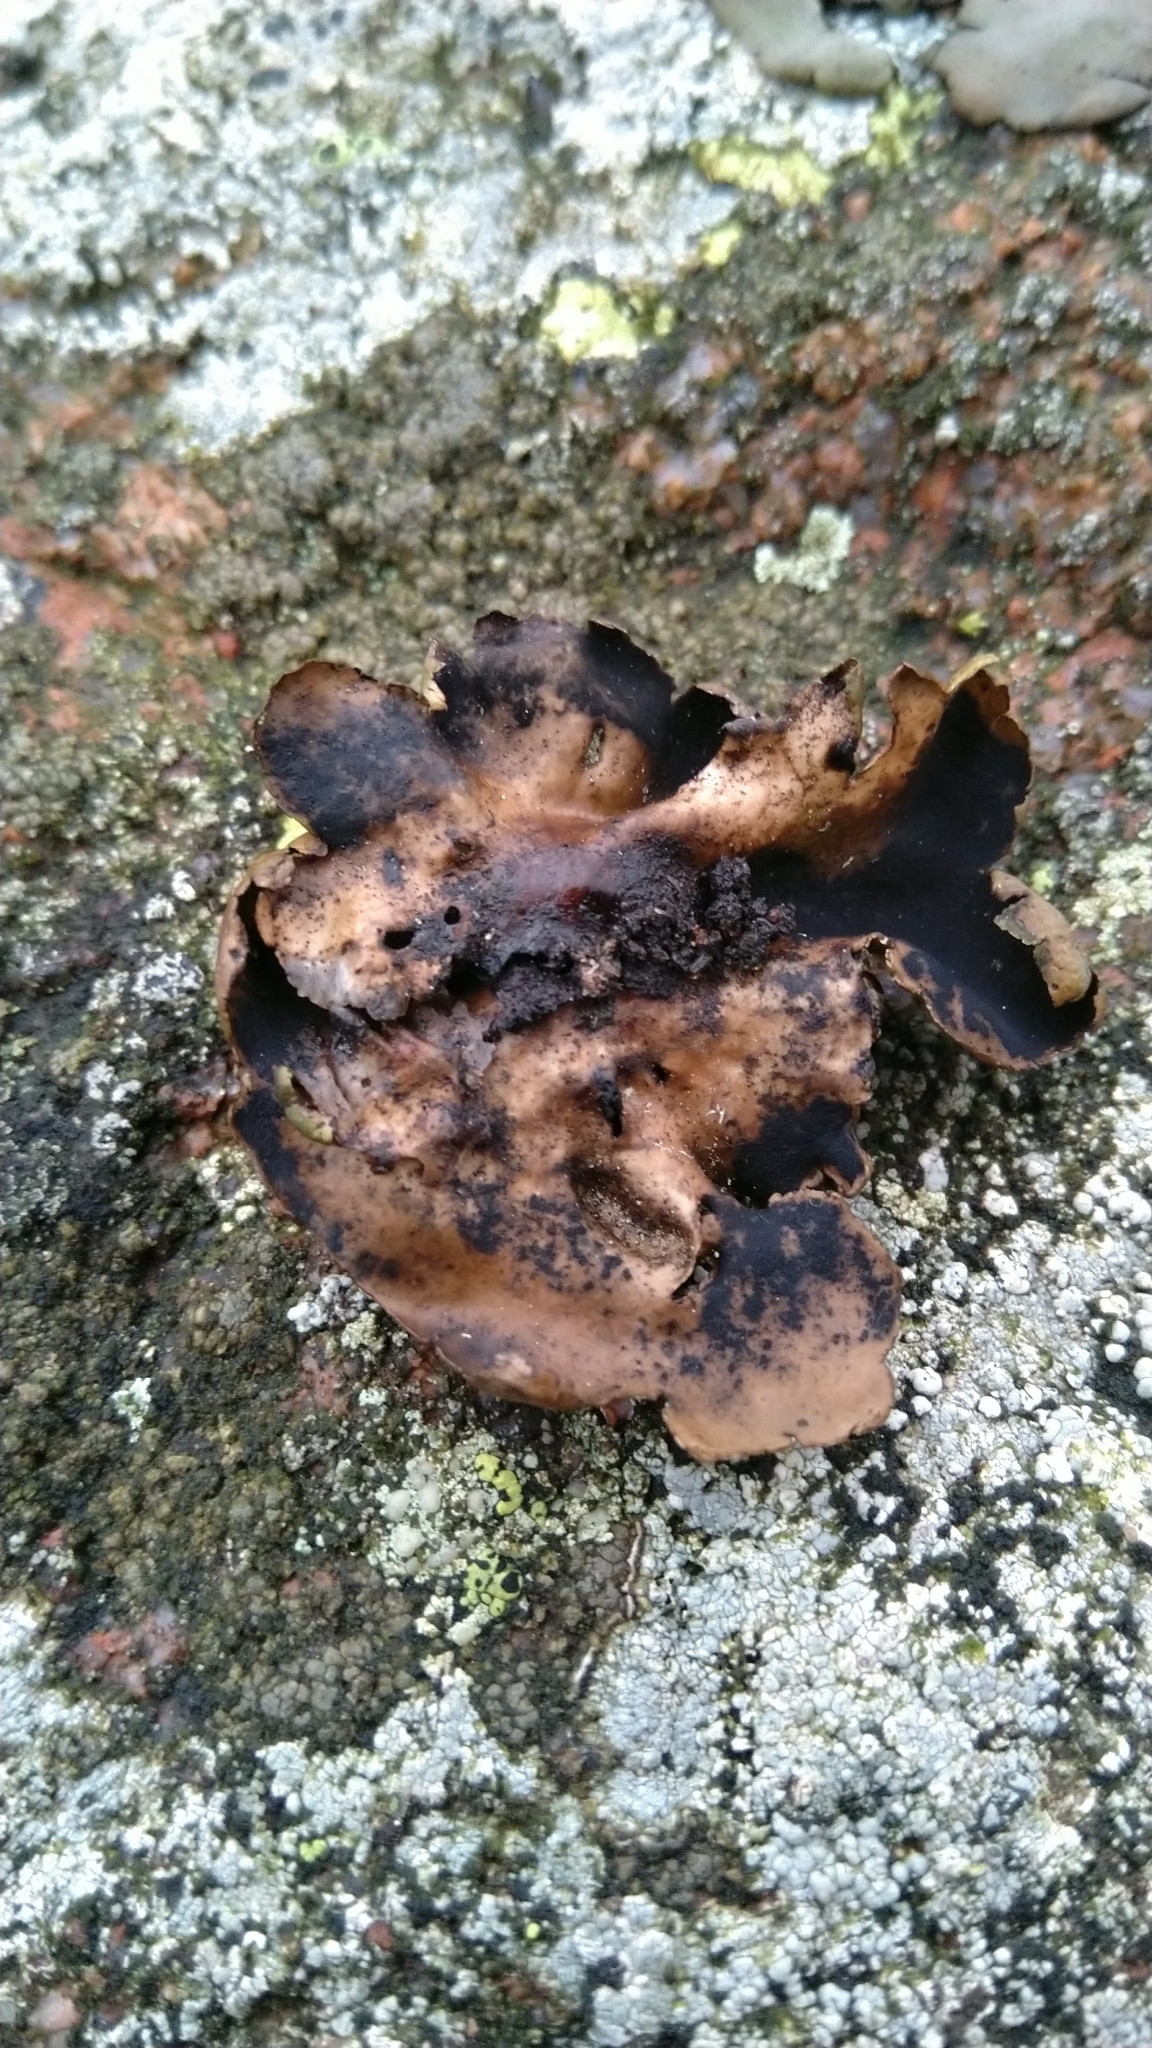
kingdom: Fungi
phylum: Ascomycota
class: Lecanoromycetes
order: Umbilicariales
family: Umbilicariaceae
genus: Umbilicaria
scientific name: Umbilicaria polyphylla
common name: Petalled rocktripe lichen
